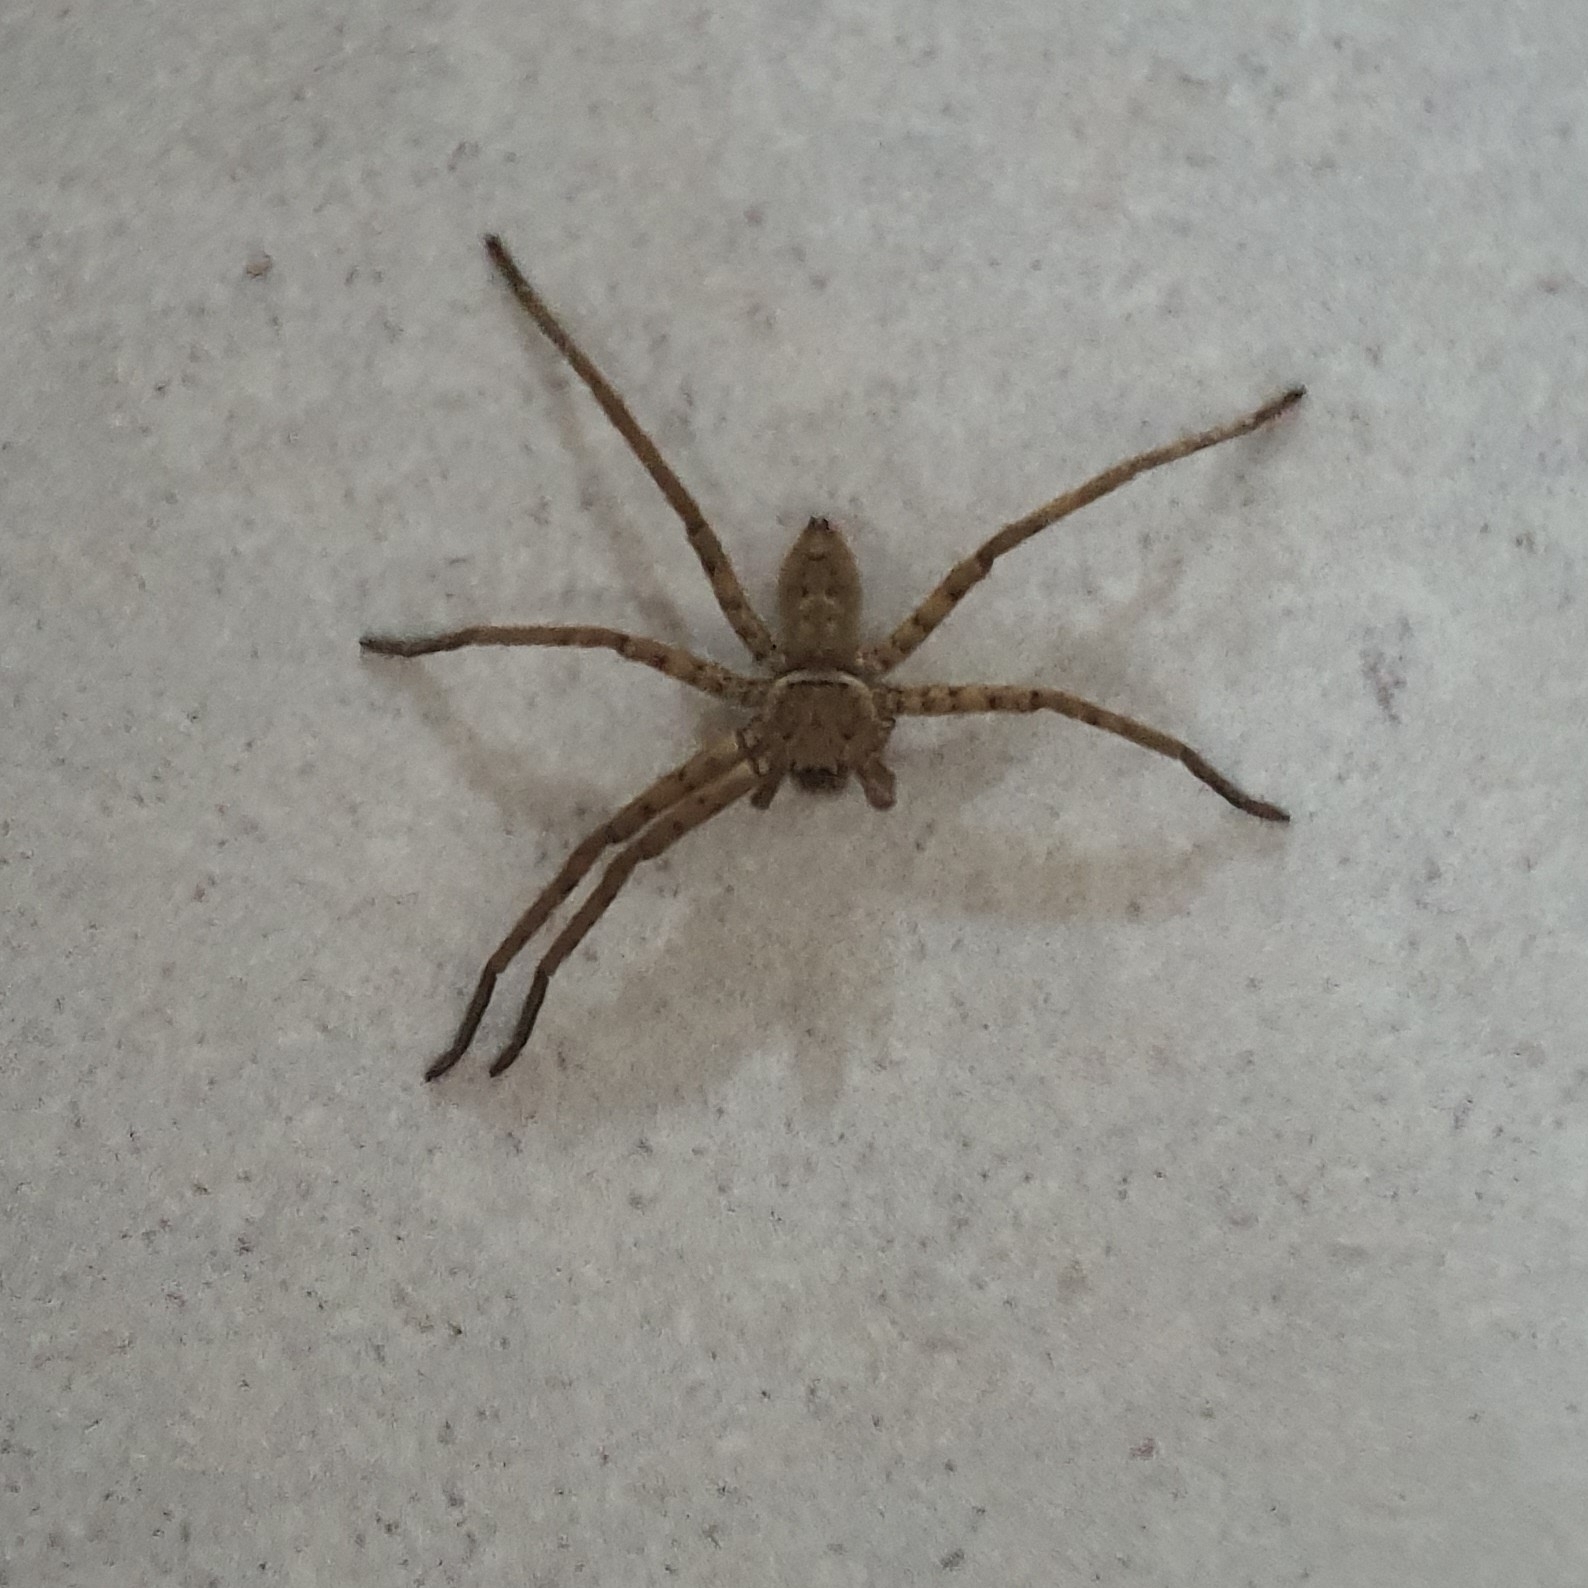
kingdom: Animalia
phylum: Arthropoda
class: Arachnida
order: Araneae
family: Sparassidae
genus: Heteropoda
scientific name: Heteropoda venatoria
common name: Huntsman spider
